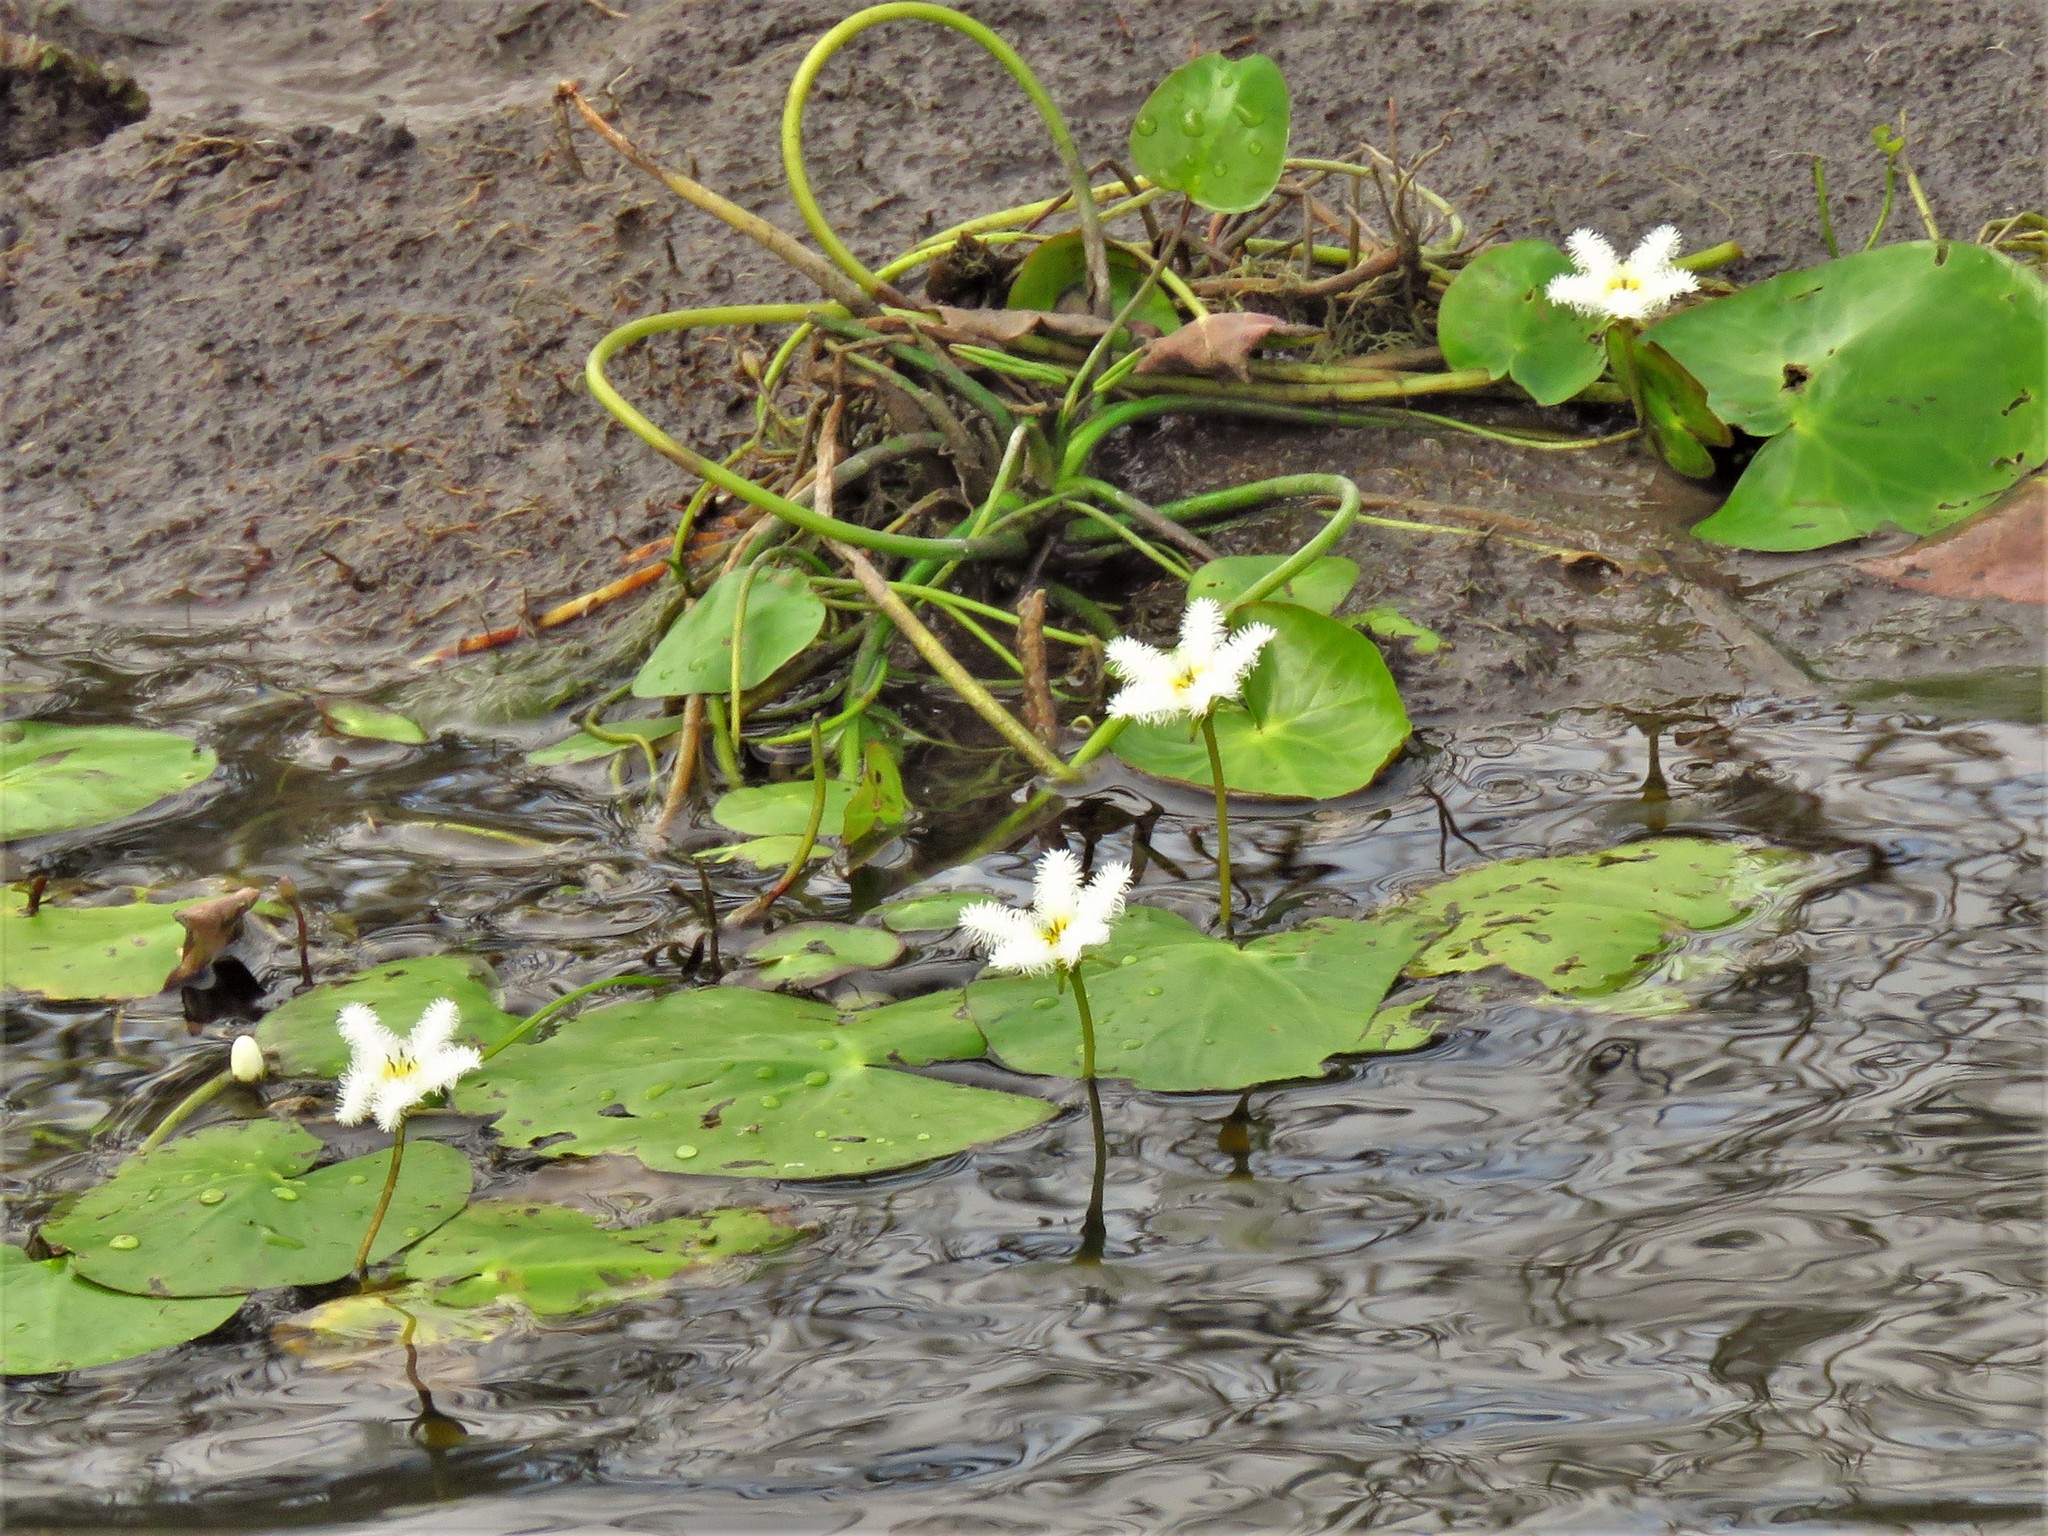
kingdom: Plantae
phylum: Tracheophyta
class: Magnoliopsida
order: Asterales
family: Menyanthaceae
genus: Nymphoides
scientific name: Nymphoides humboldtiana
